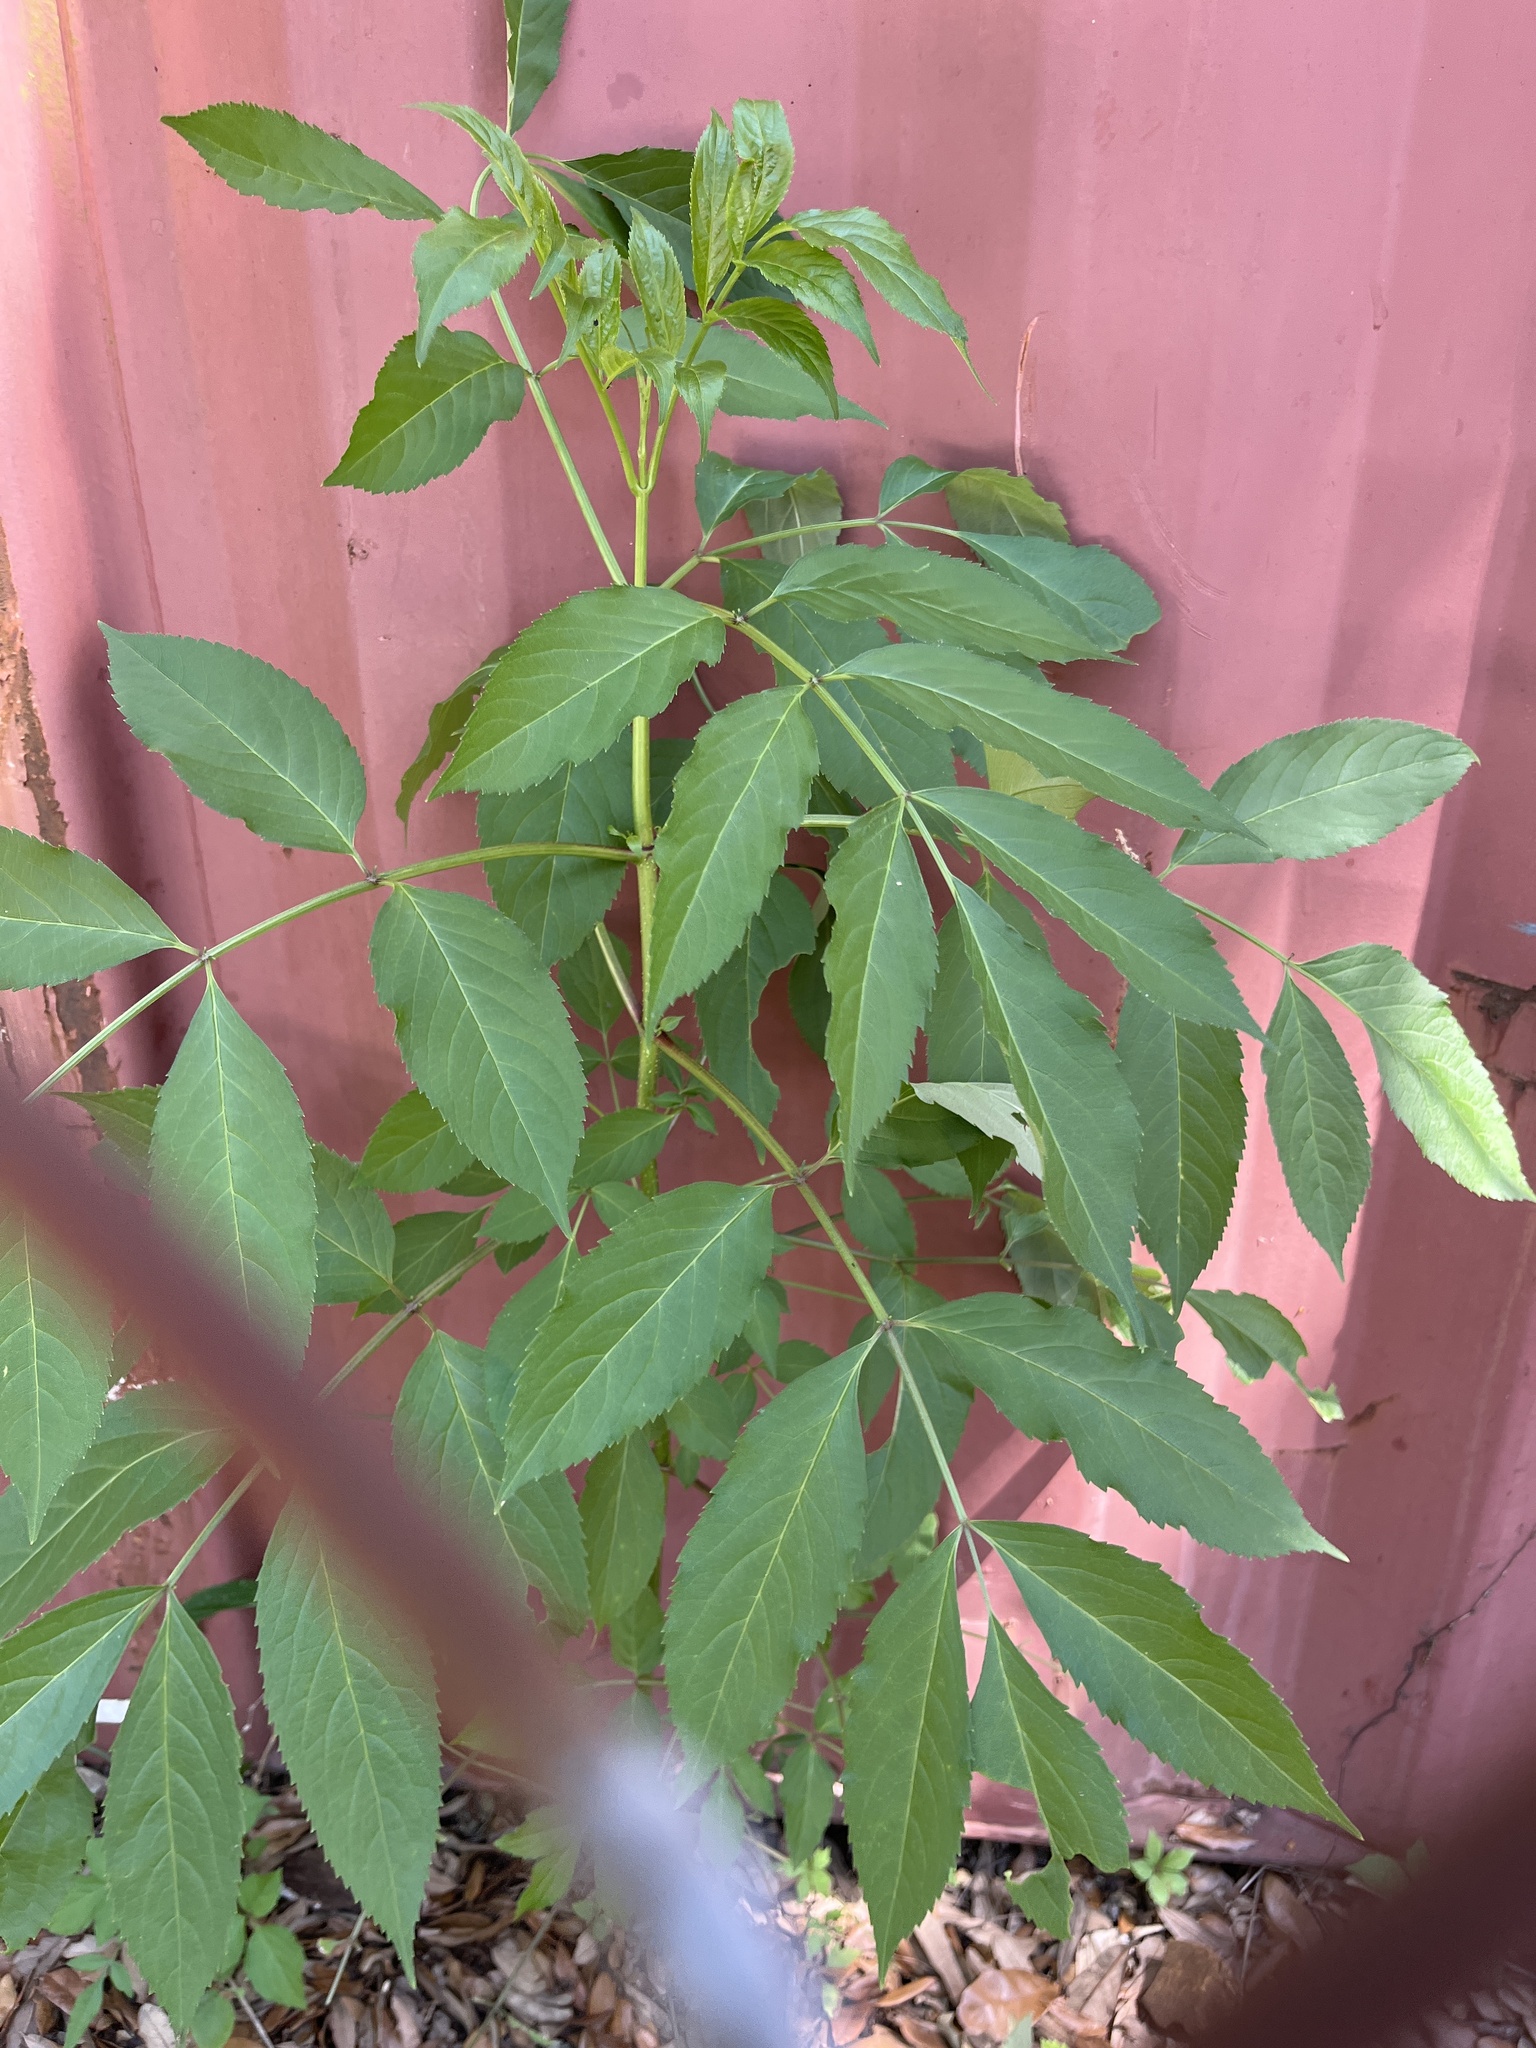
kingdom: Plantae
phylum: Tracheophyta
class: Magnoliopsida
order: Dipsacales
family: Viburnaceae
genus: Sambucus
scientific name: Sambucus canadensis
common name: American elder
